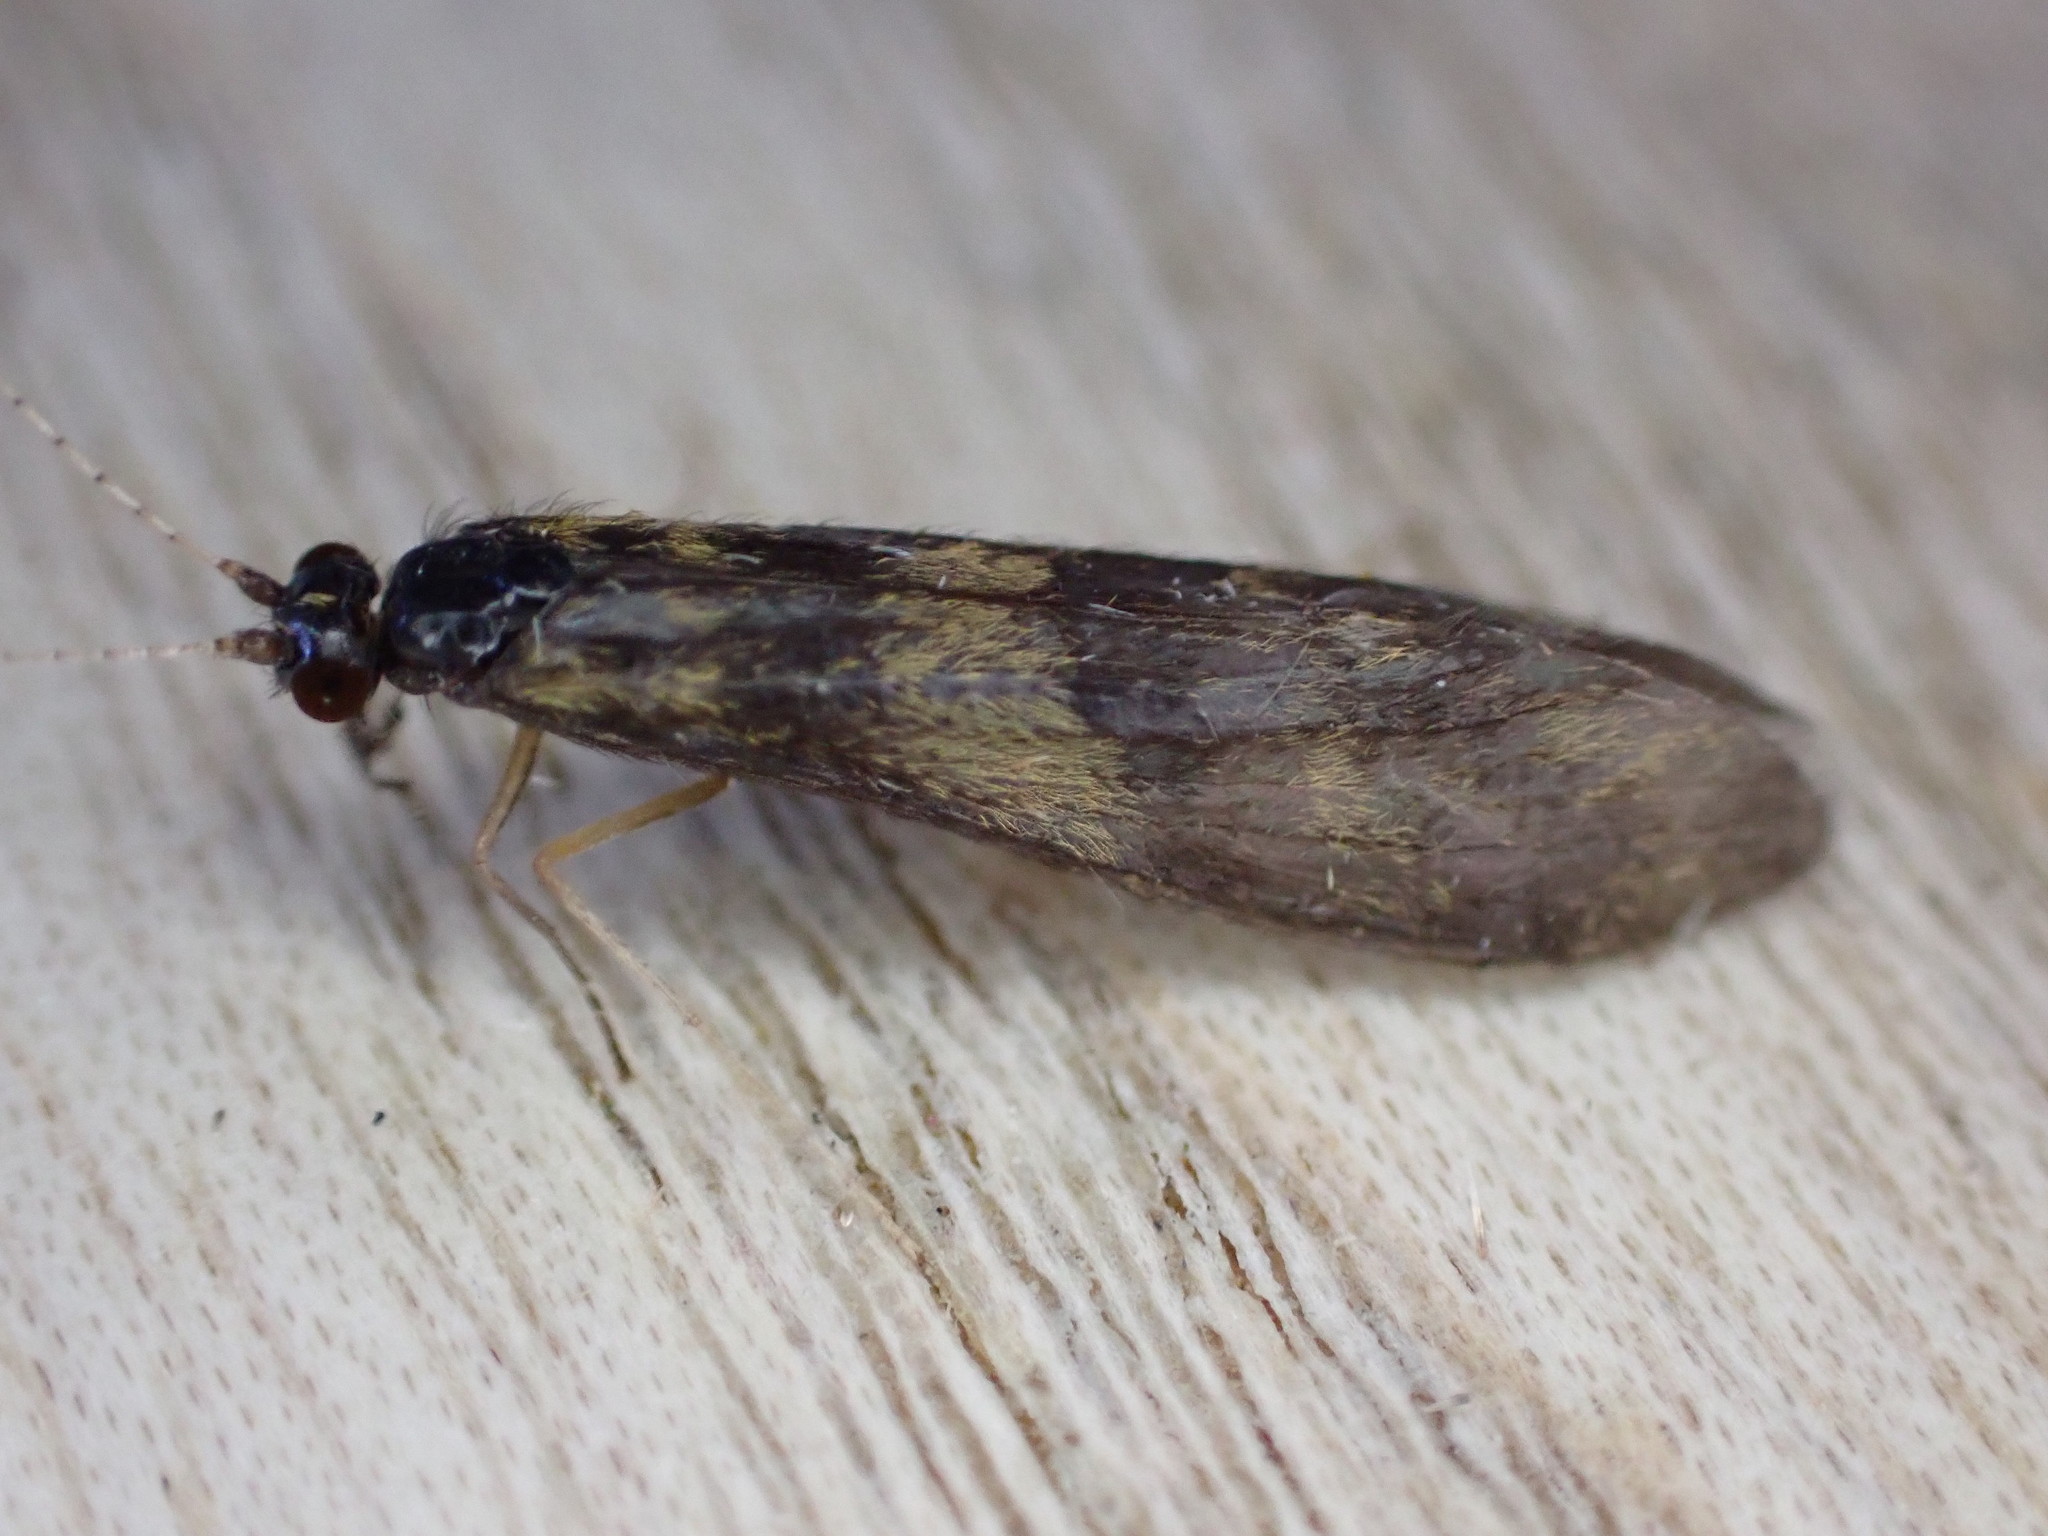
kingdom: Animalia
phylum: Arthropoda
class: Insecta
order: Trichoptera
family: Leptoceridae
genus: Mystacides
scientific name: Mystacides longicornis
